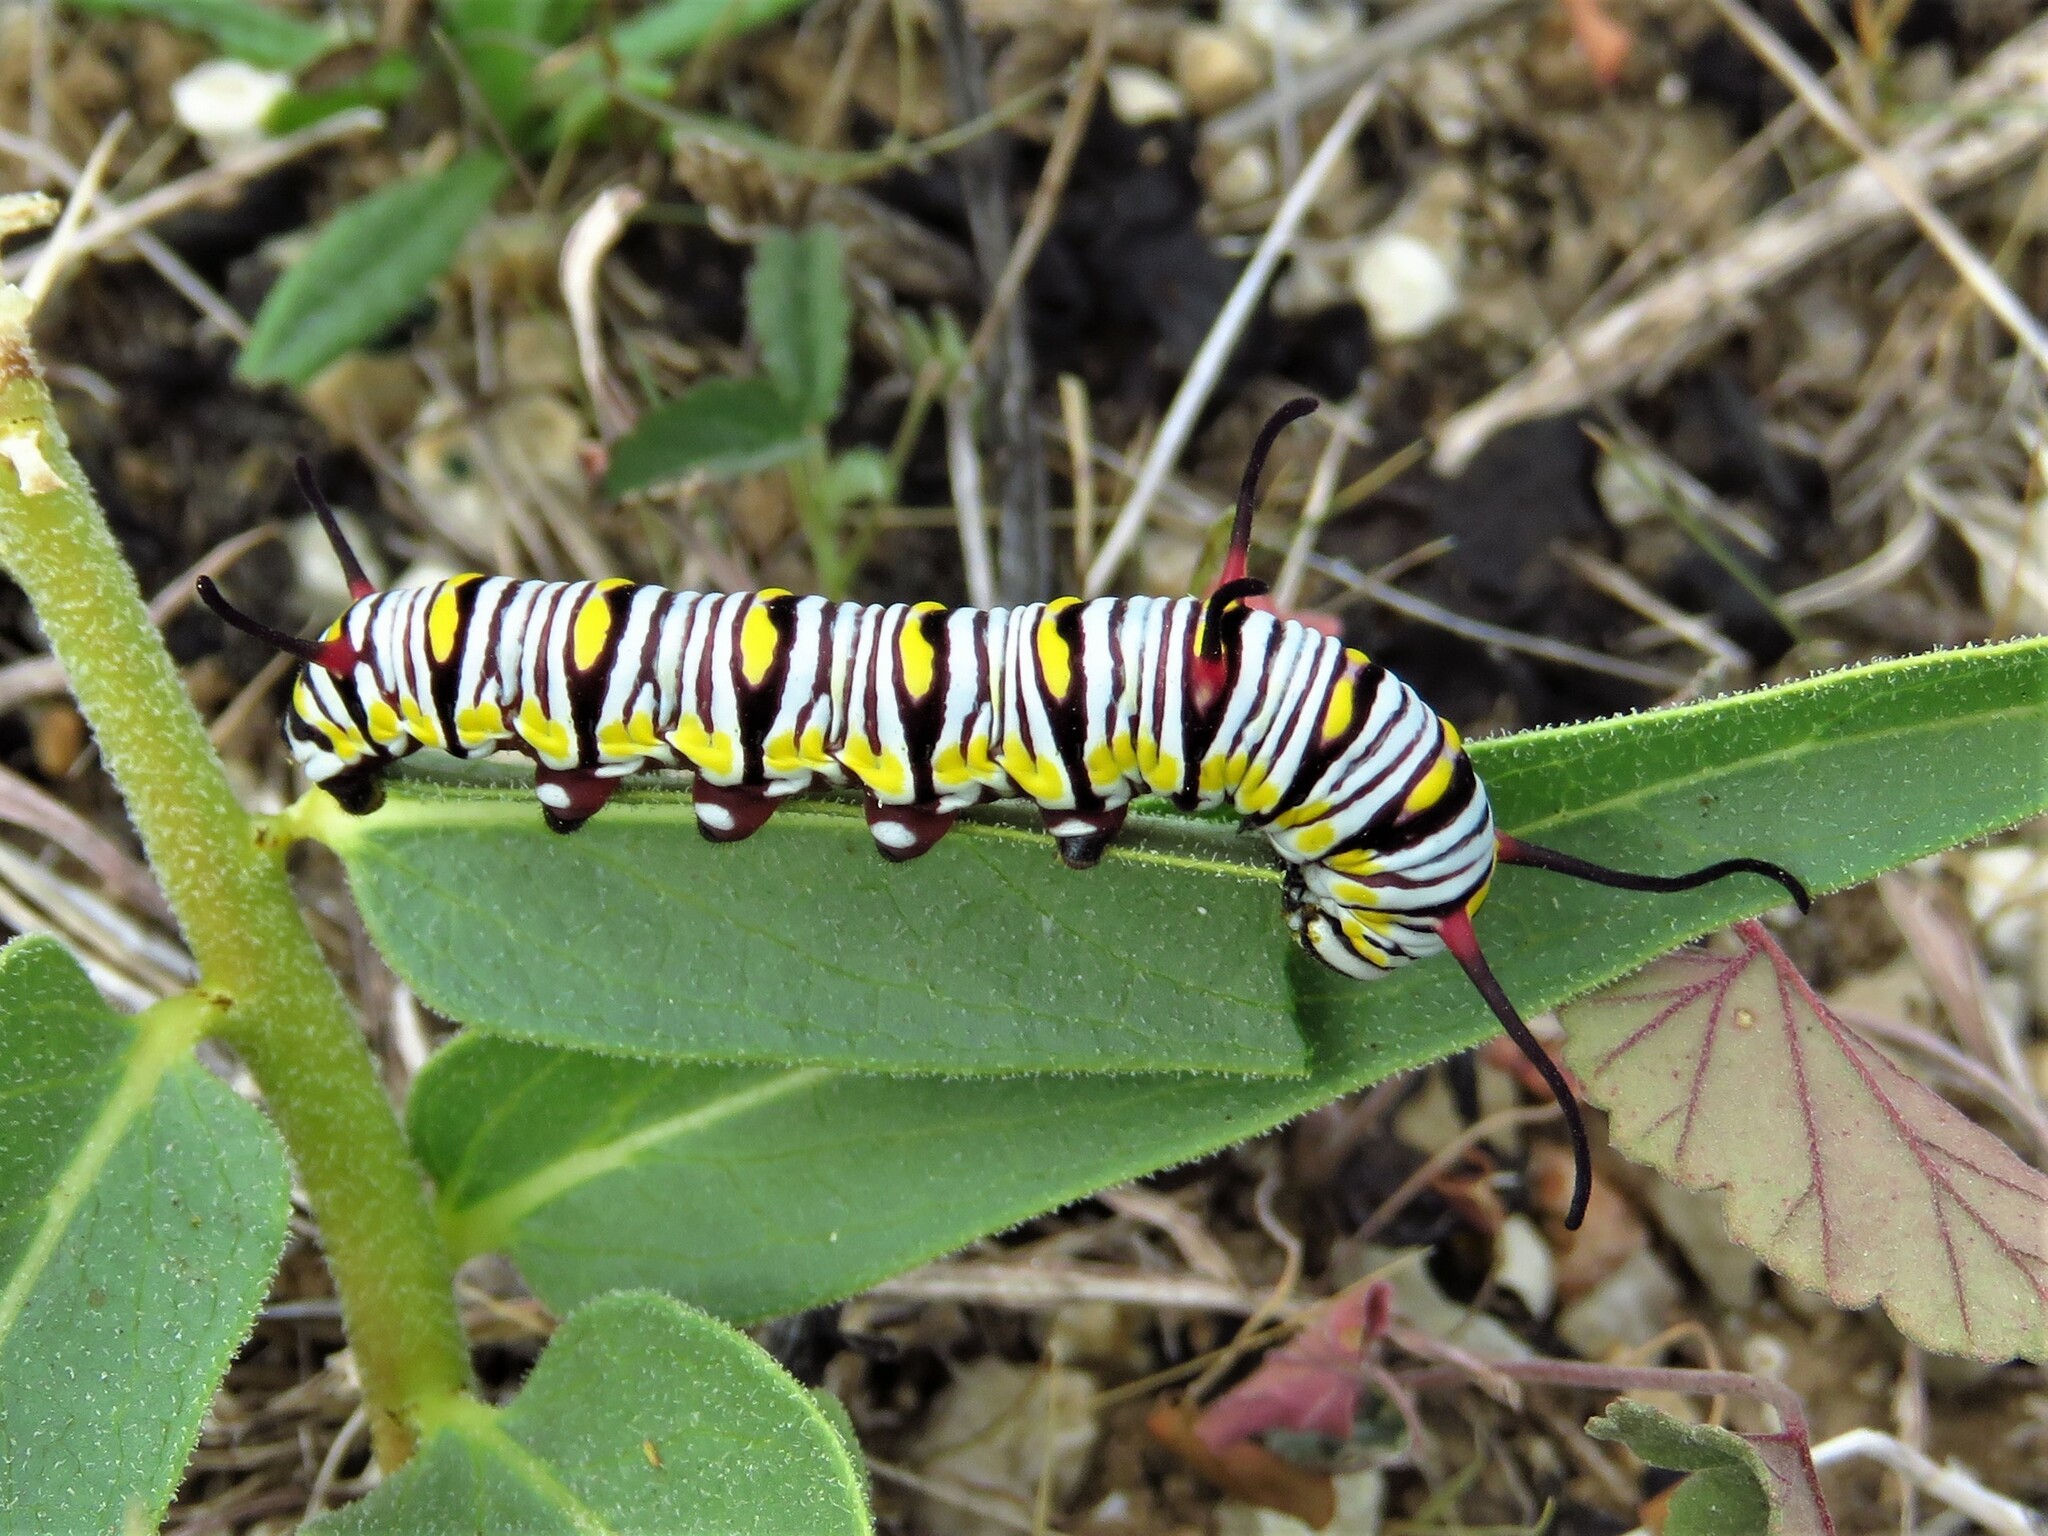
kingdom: Animalia
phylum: Arthropoda
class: Insecta
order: Lepidoptera
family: Nymphalidae
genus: Danaus
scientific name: Danaus gilippus
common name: Queen
